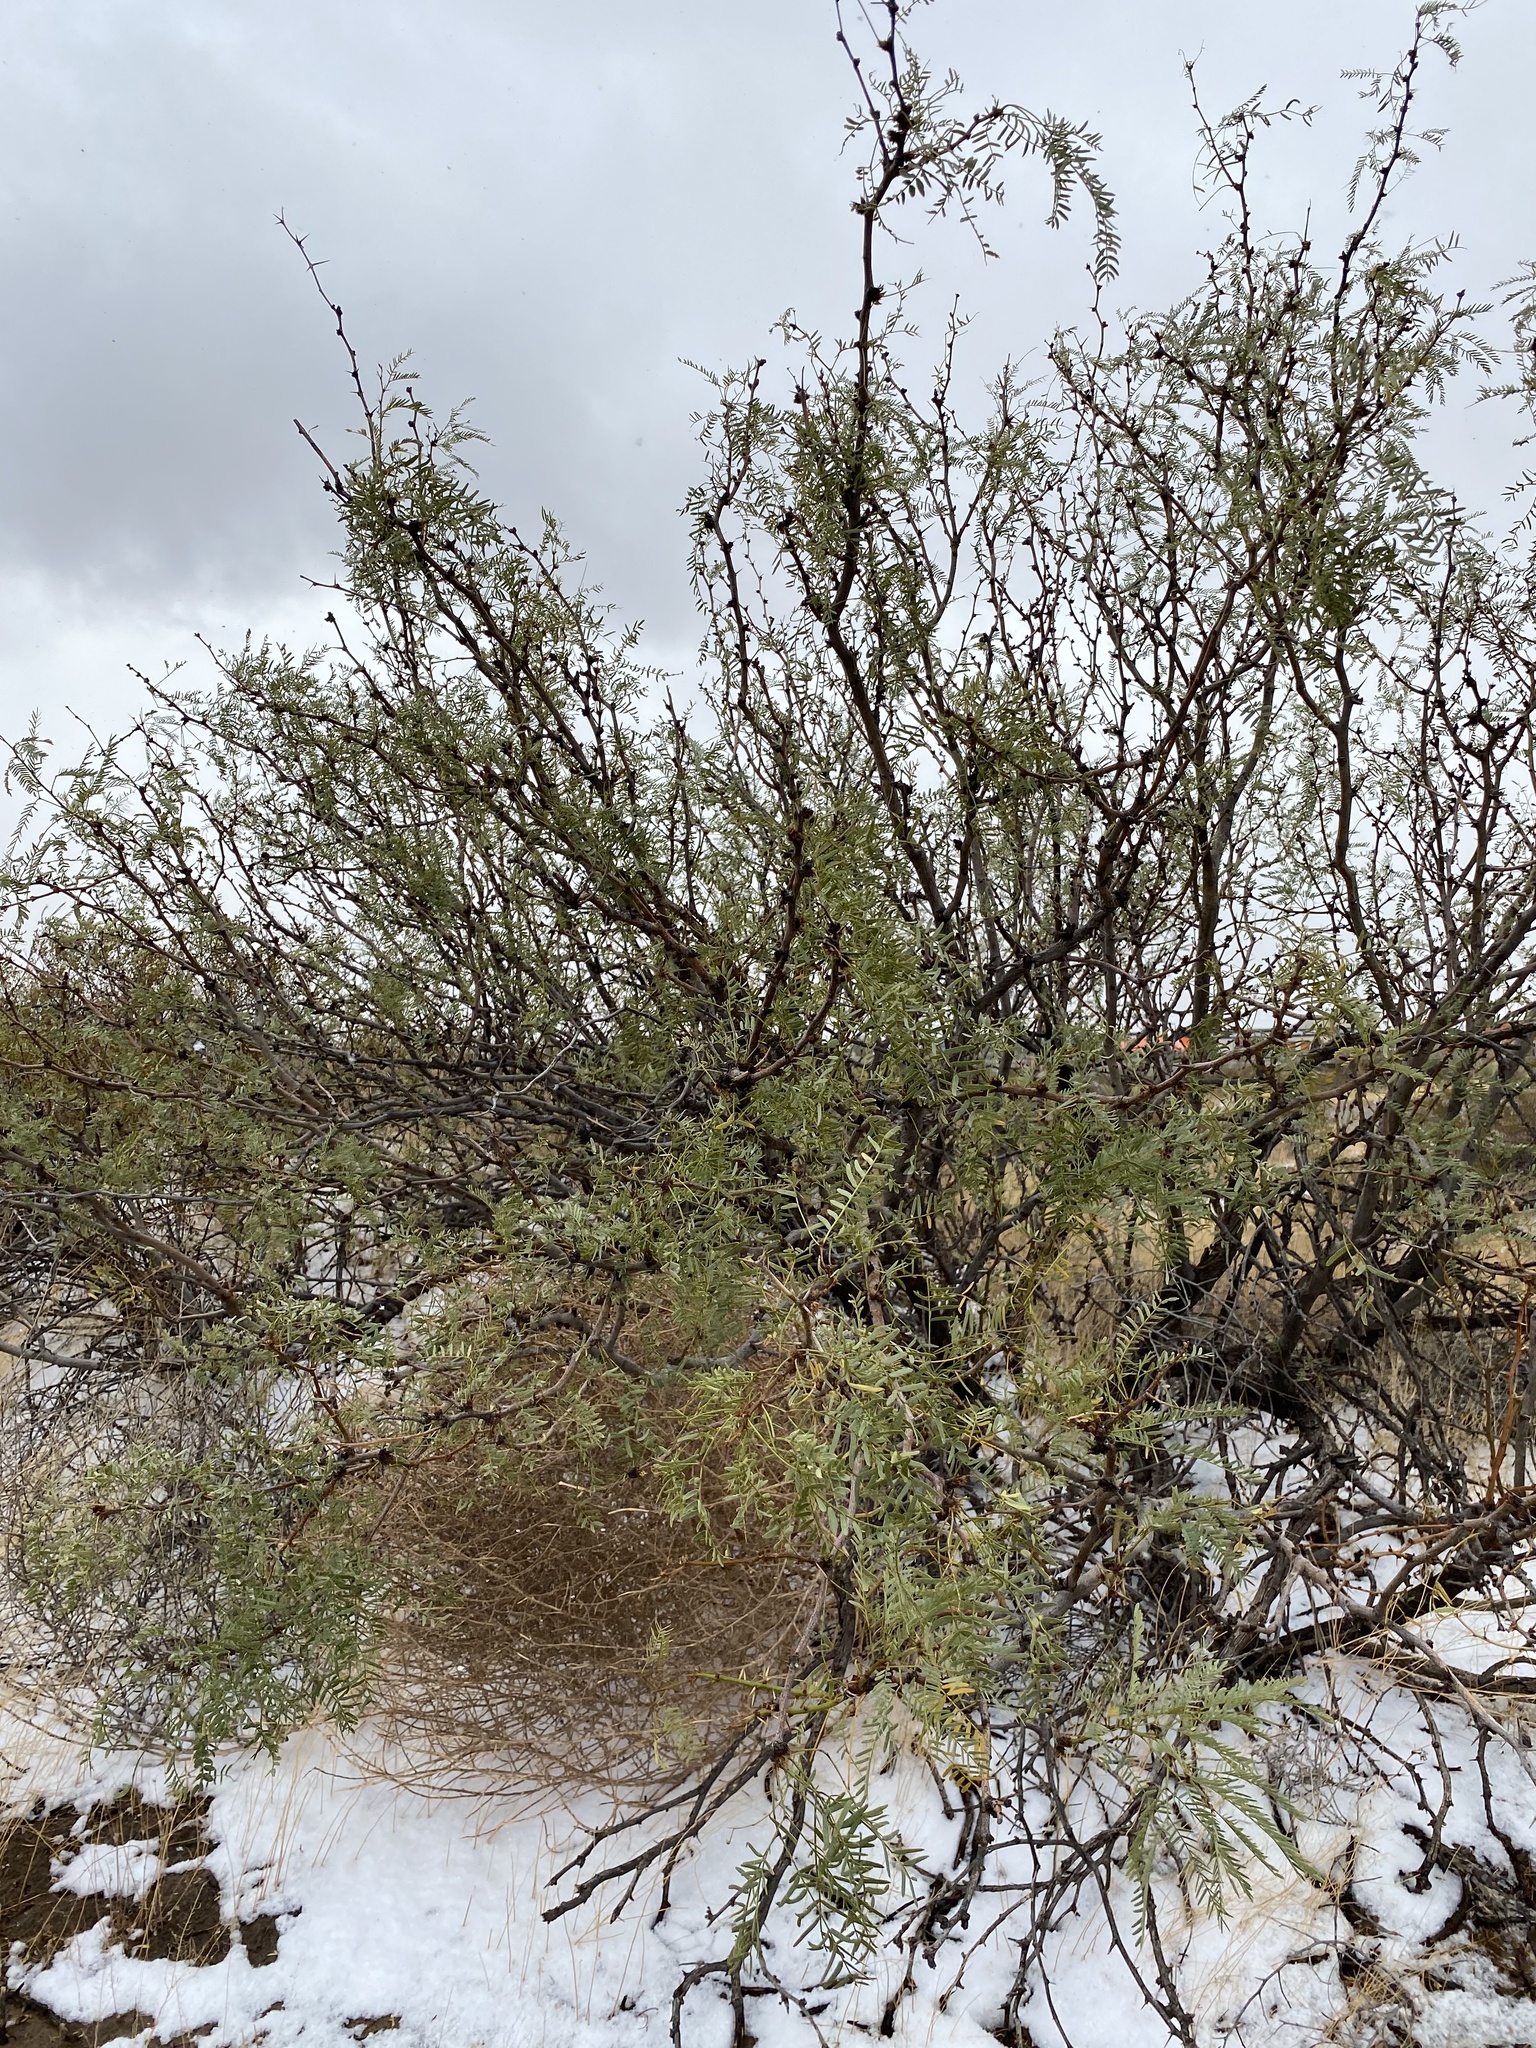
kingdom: Plantae
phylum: Tracheophyta
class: Magnoliopsida
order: Fabales
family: Fabaceae
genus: Prosopis
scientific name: Prosopis glandulosa
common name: Honey mesquite
